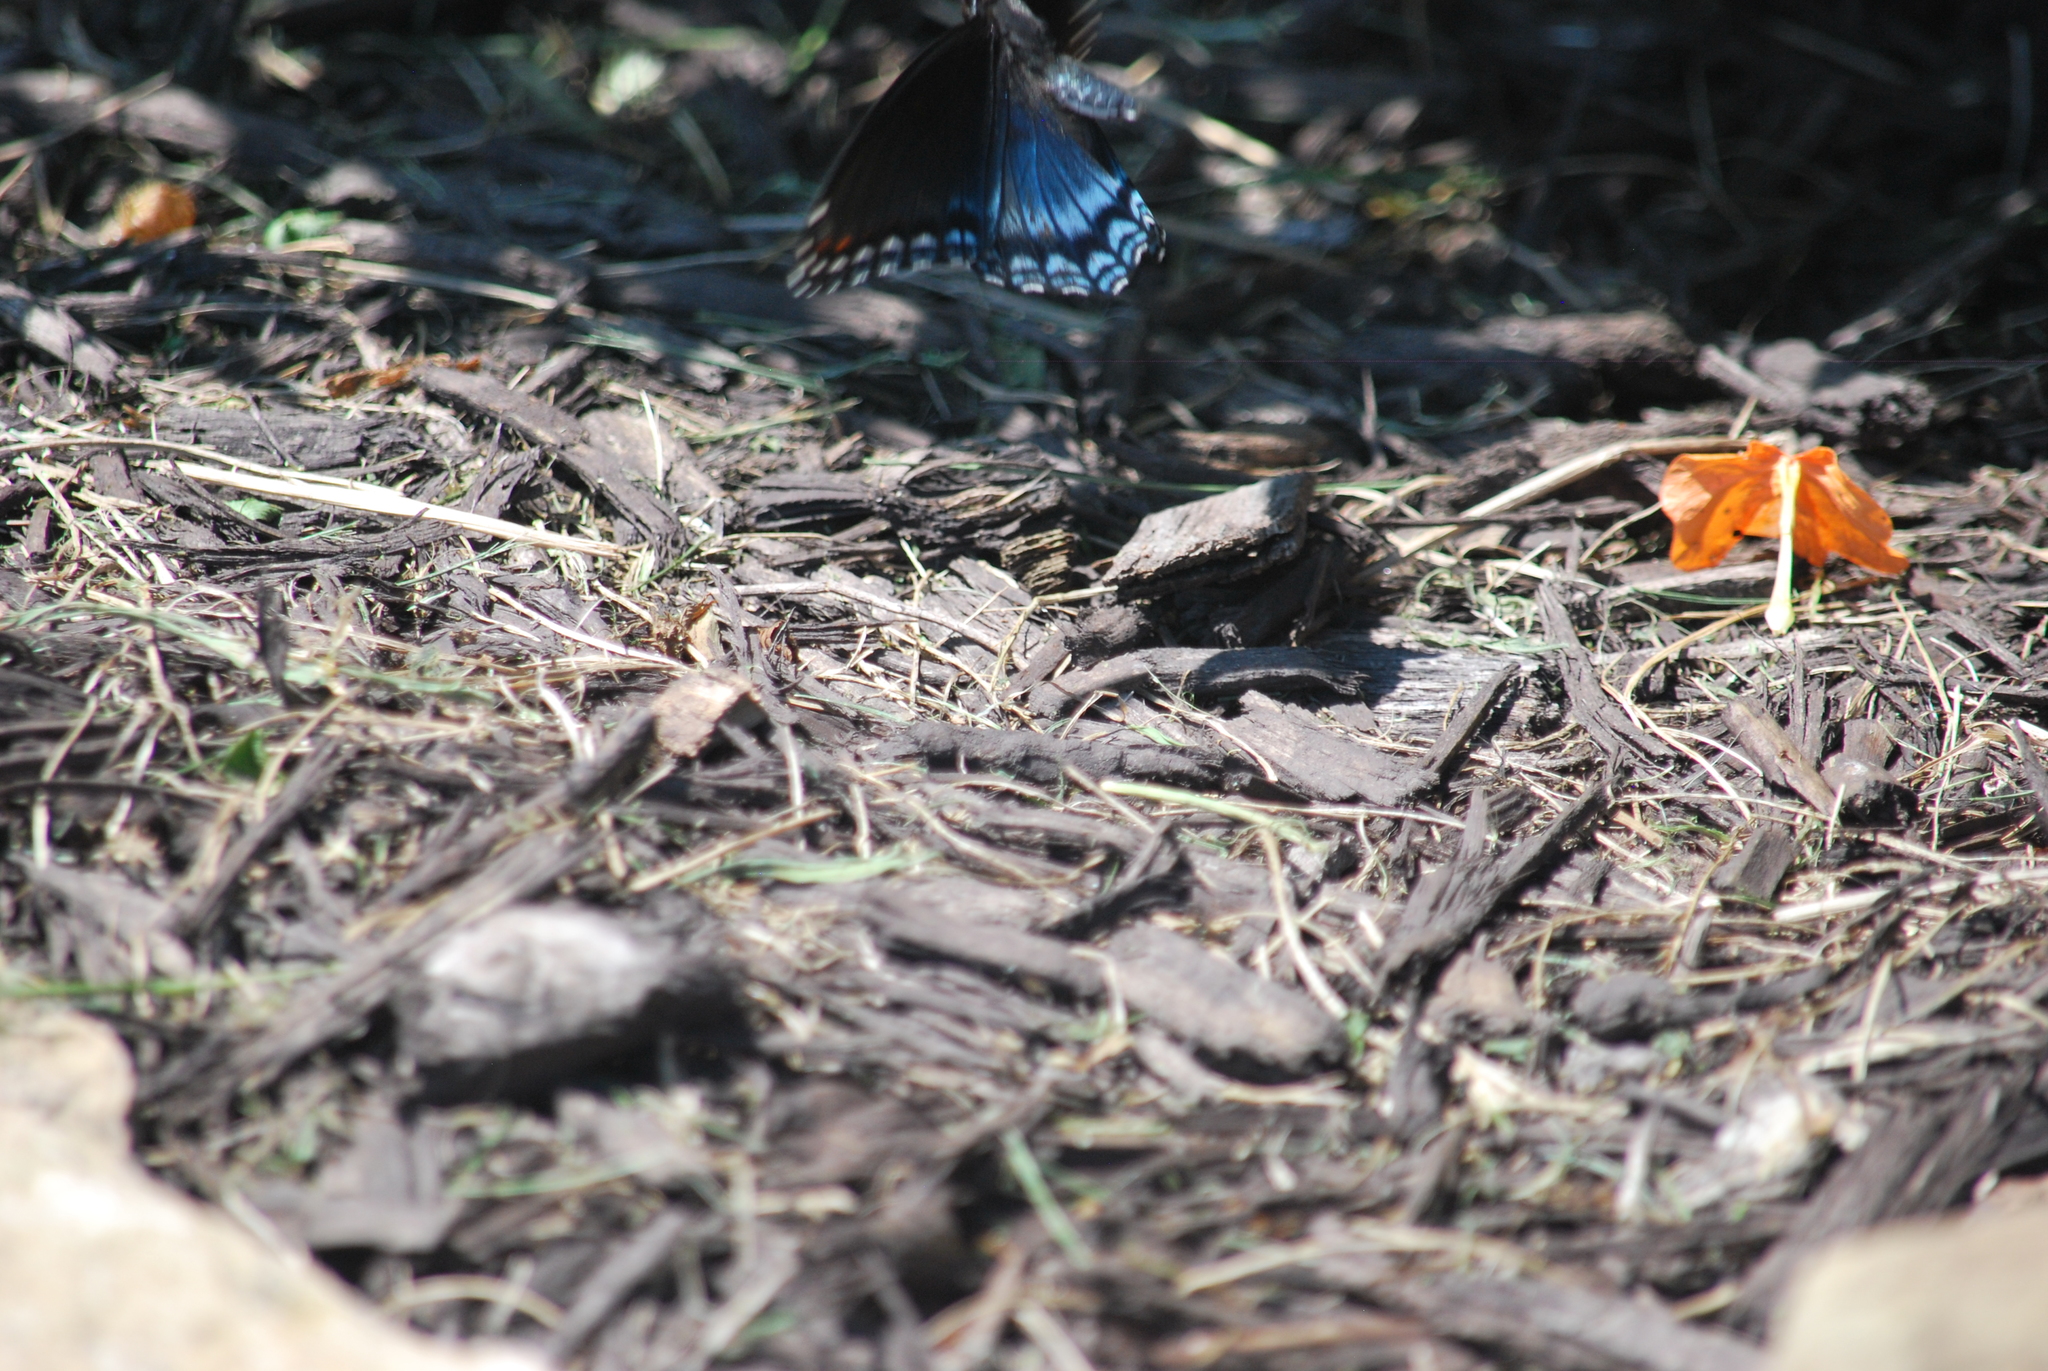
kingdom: Animalia
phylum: Arthropoda
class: Insecta
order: Lepidoptera
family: Nymphalidae
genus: Limenitis
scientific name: Limenitis astyanax
